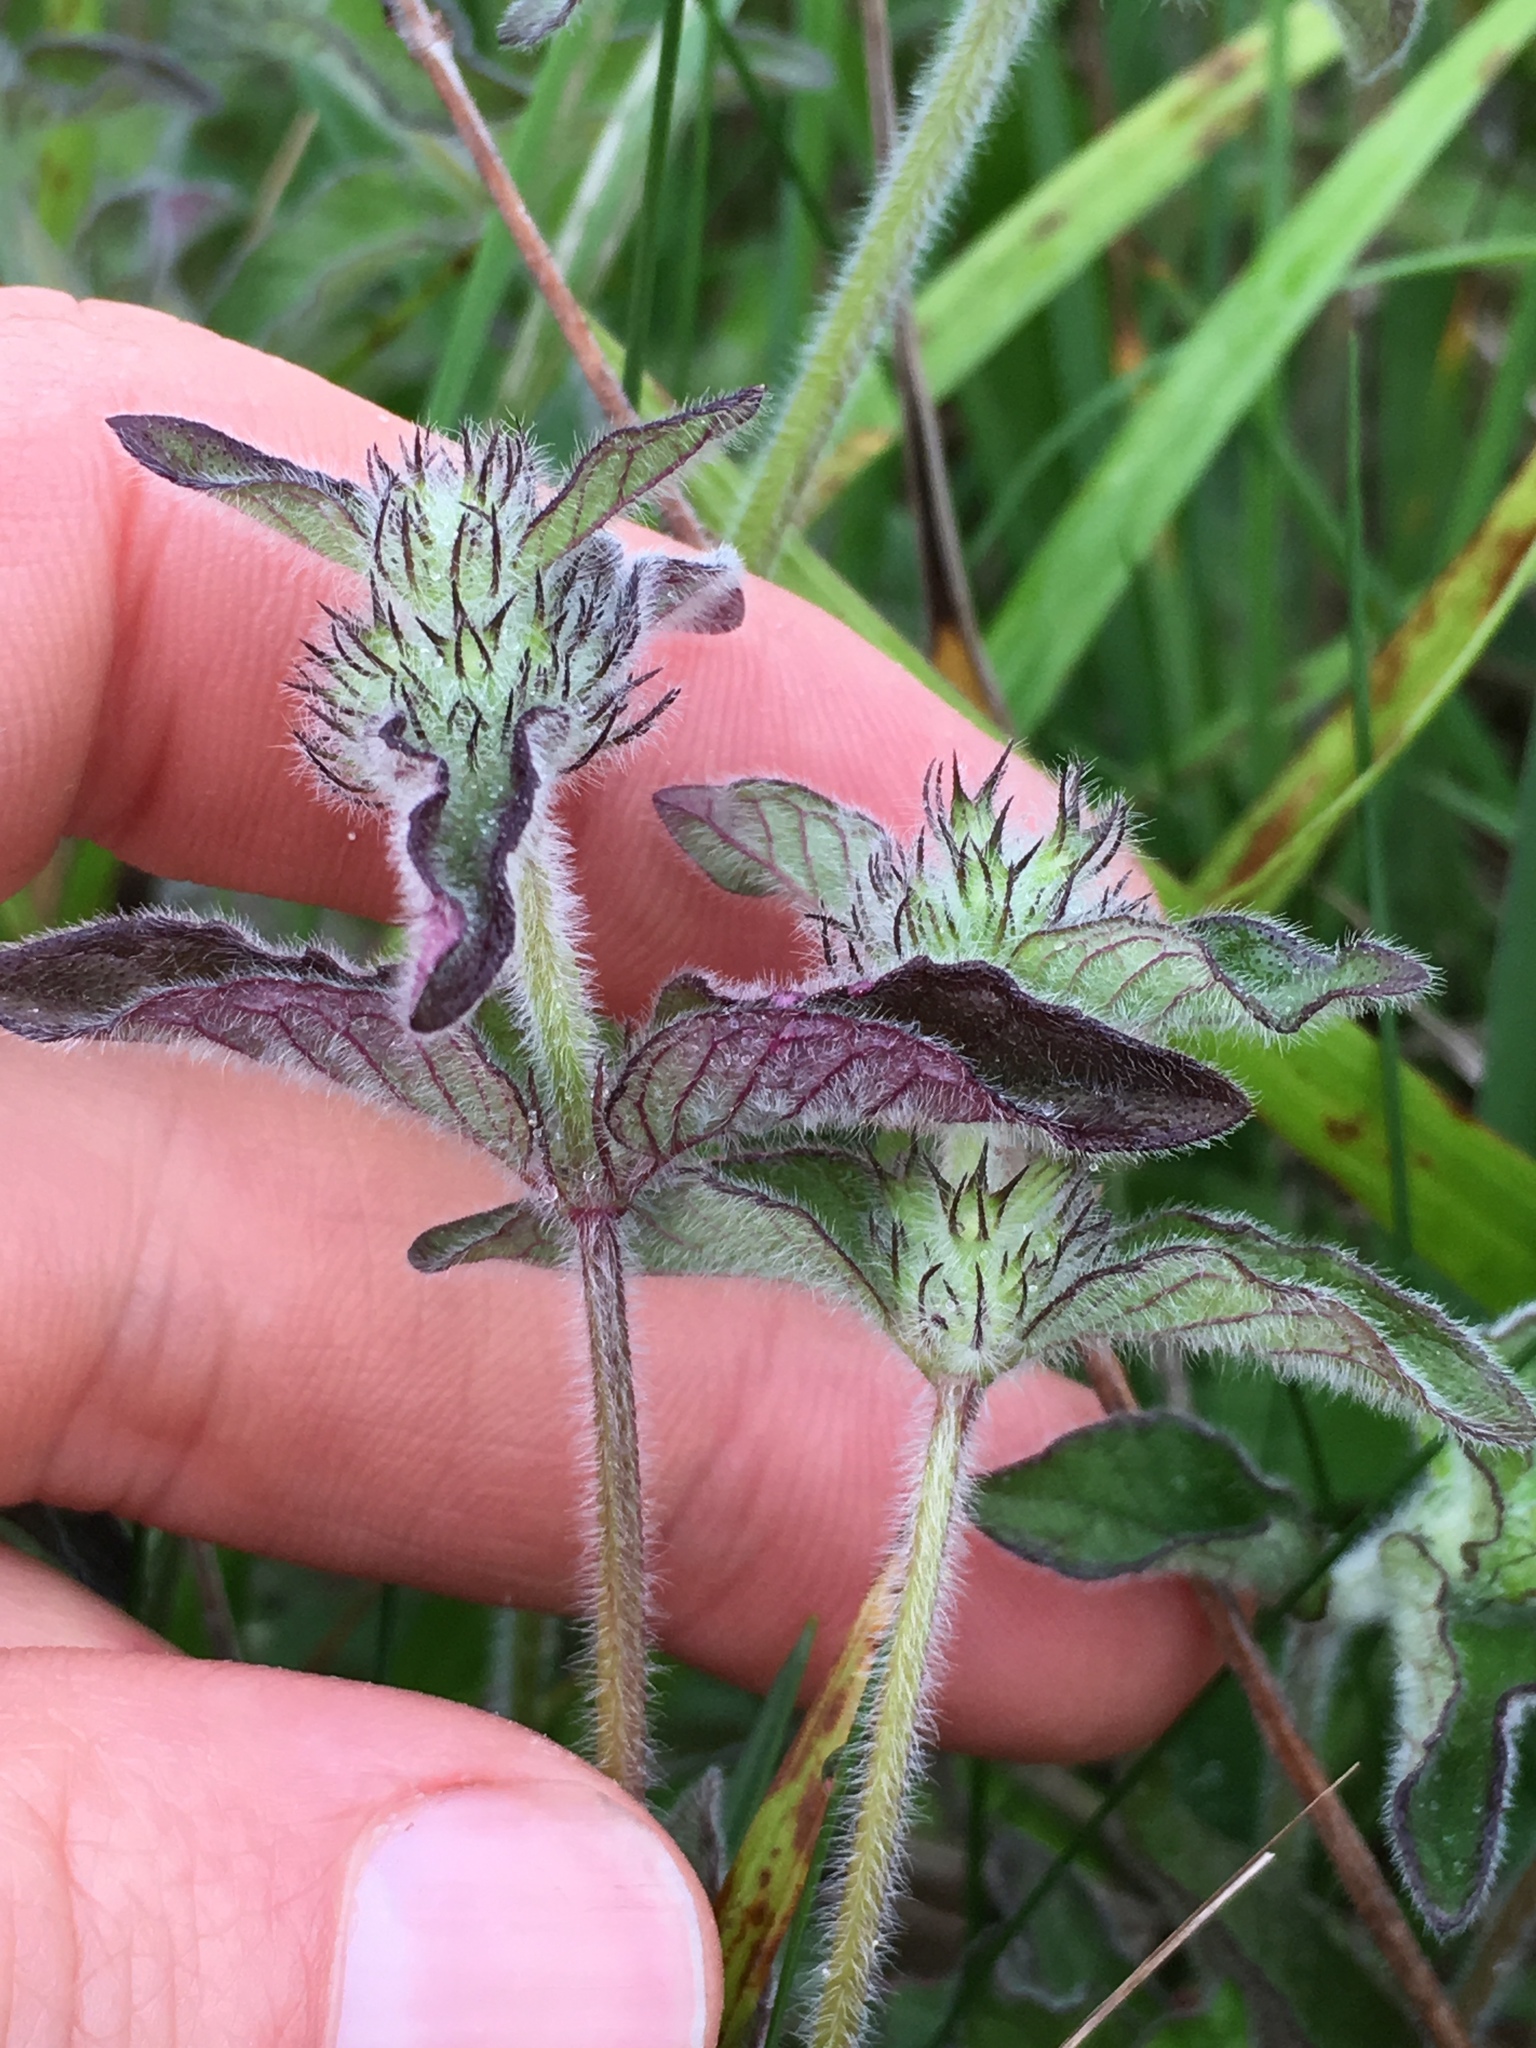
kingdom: Plantae
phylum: Tracheophyta
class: Magnoliopsida
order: Lamiales
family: Lamiaceae
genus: Clinopodium
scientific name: Clinopodium vulgare
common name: Wild basil
